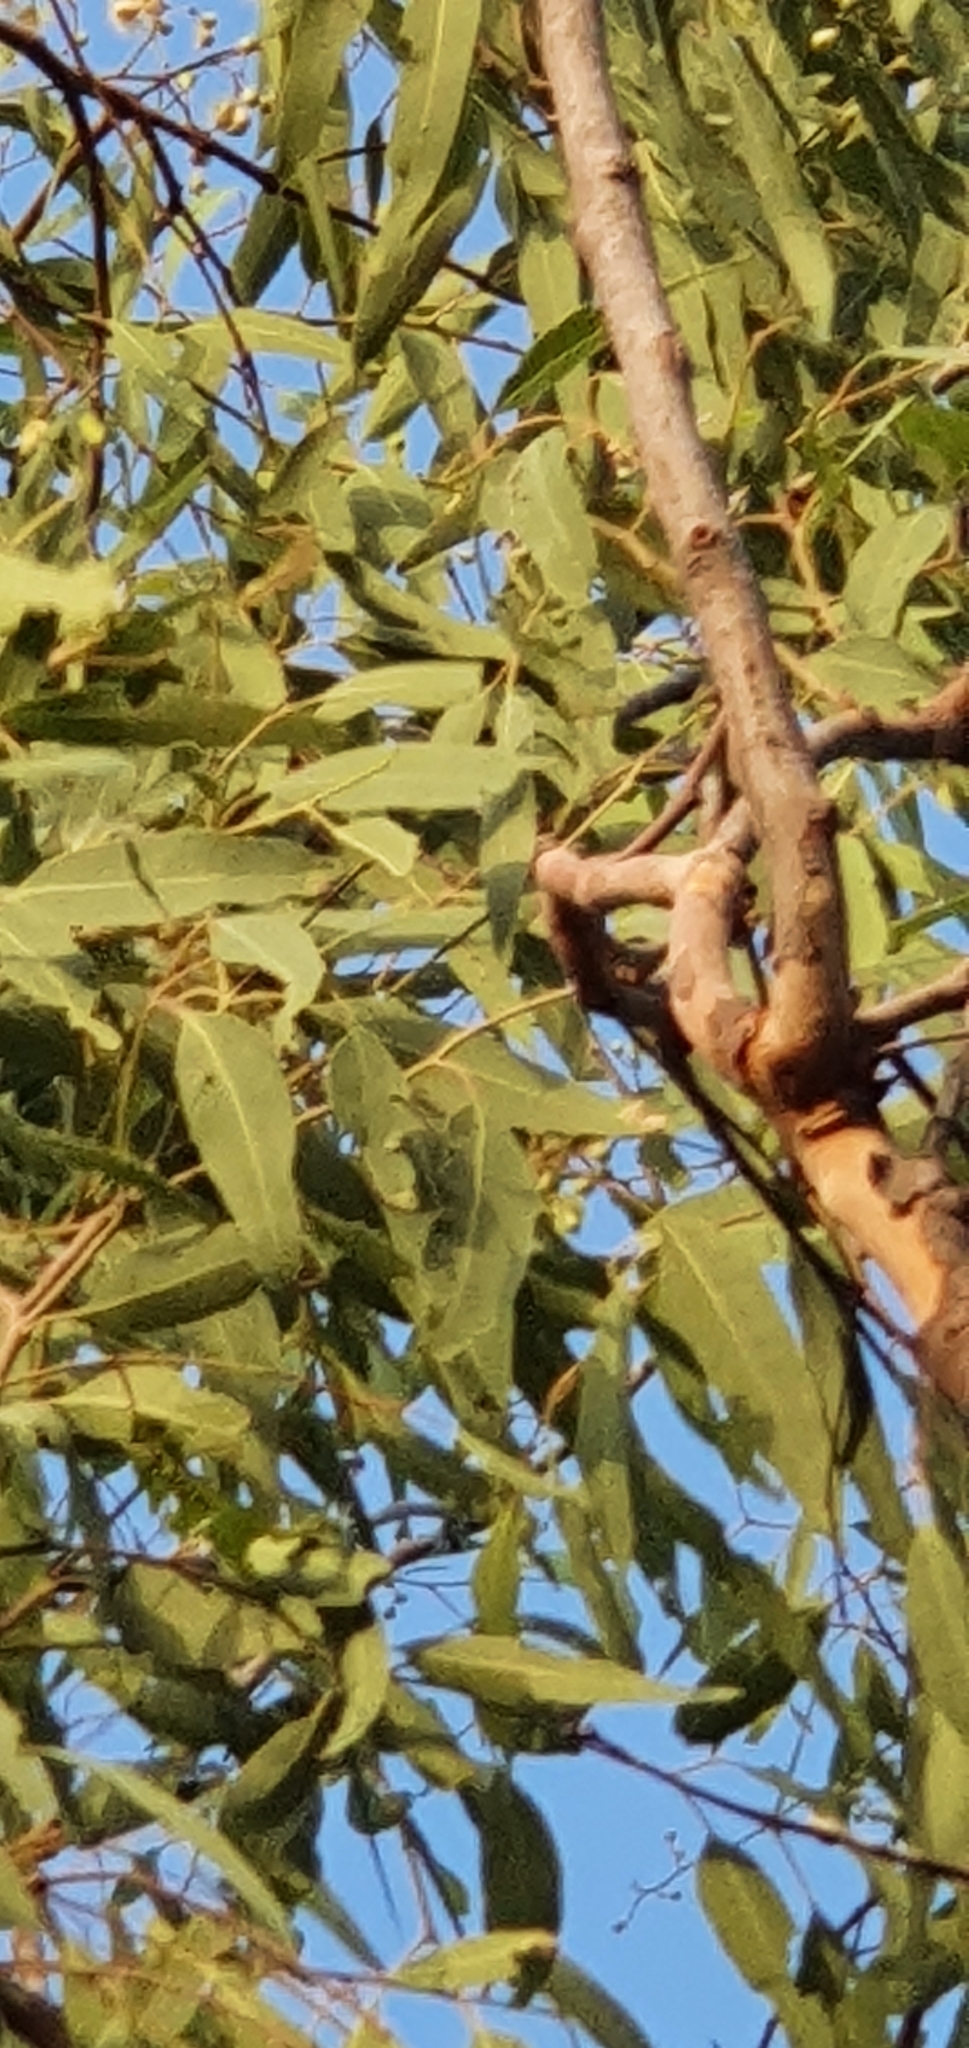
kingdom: Plantae
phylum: Tracheophyta
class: Magnoliopsida
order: Myrtales
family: Myrtaceae
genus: Corymbia
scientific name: Corymbia erythrophloia
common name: Red bloodwood
